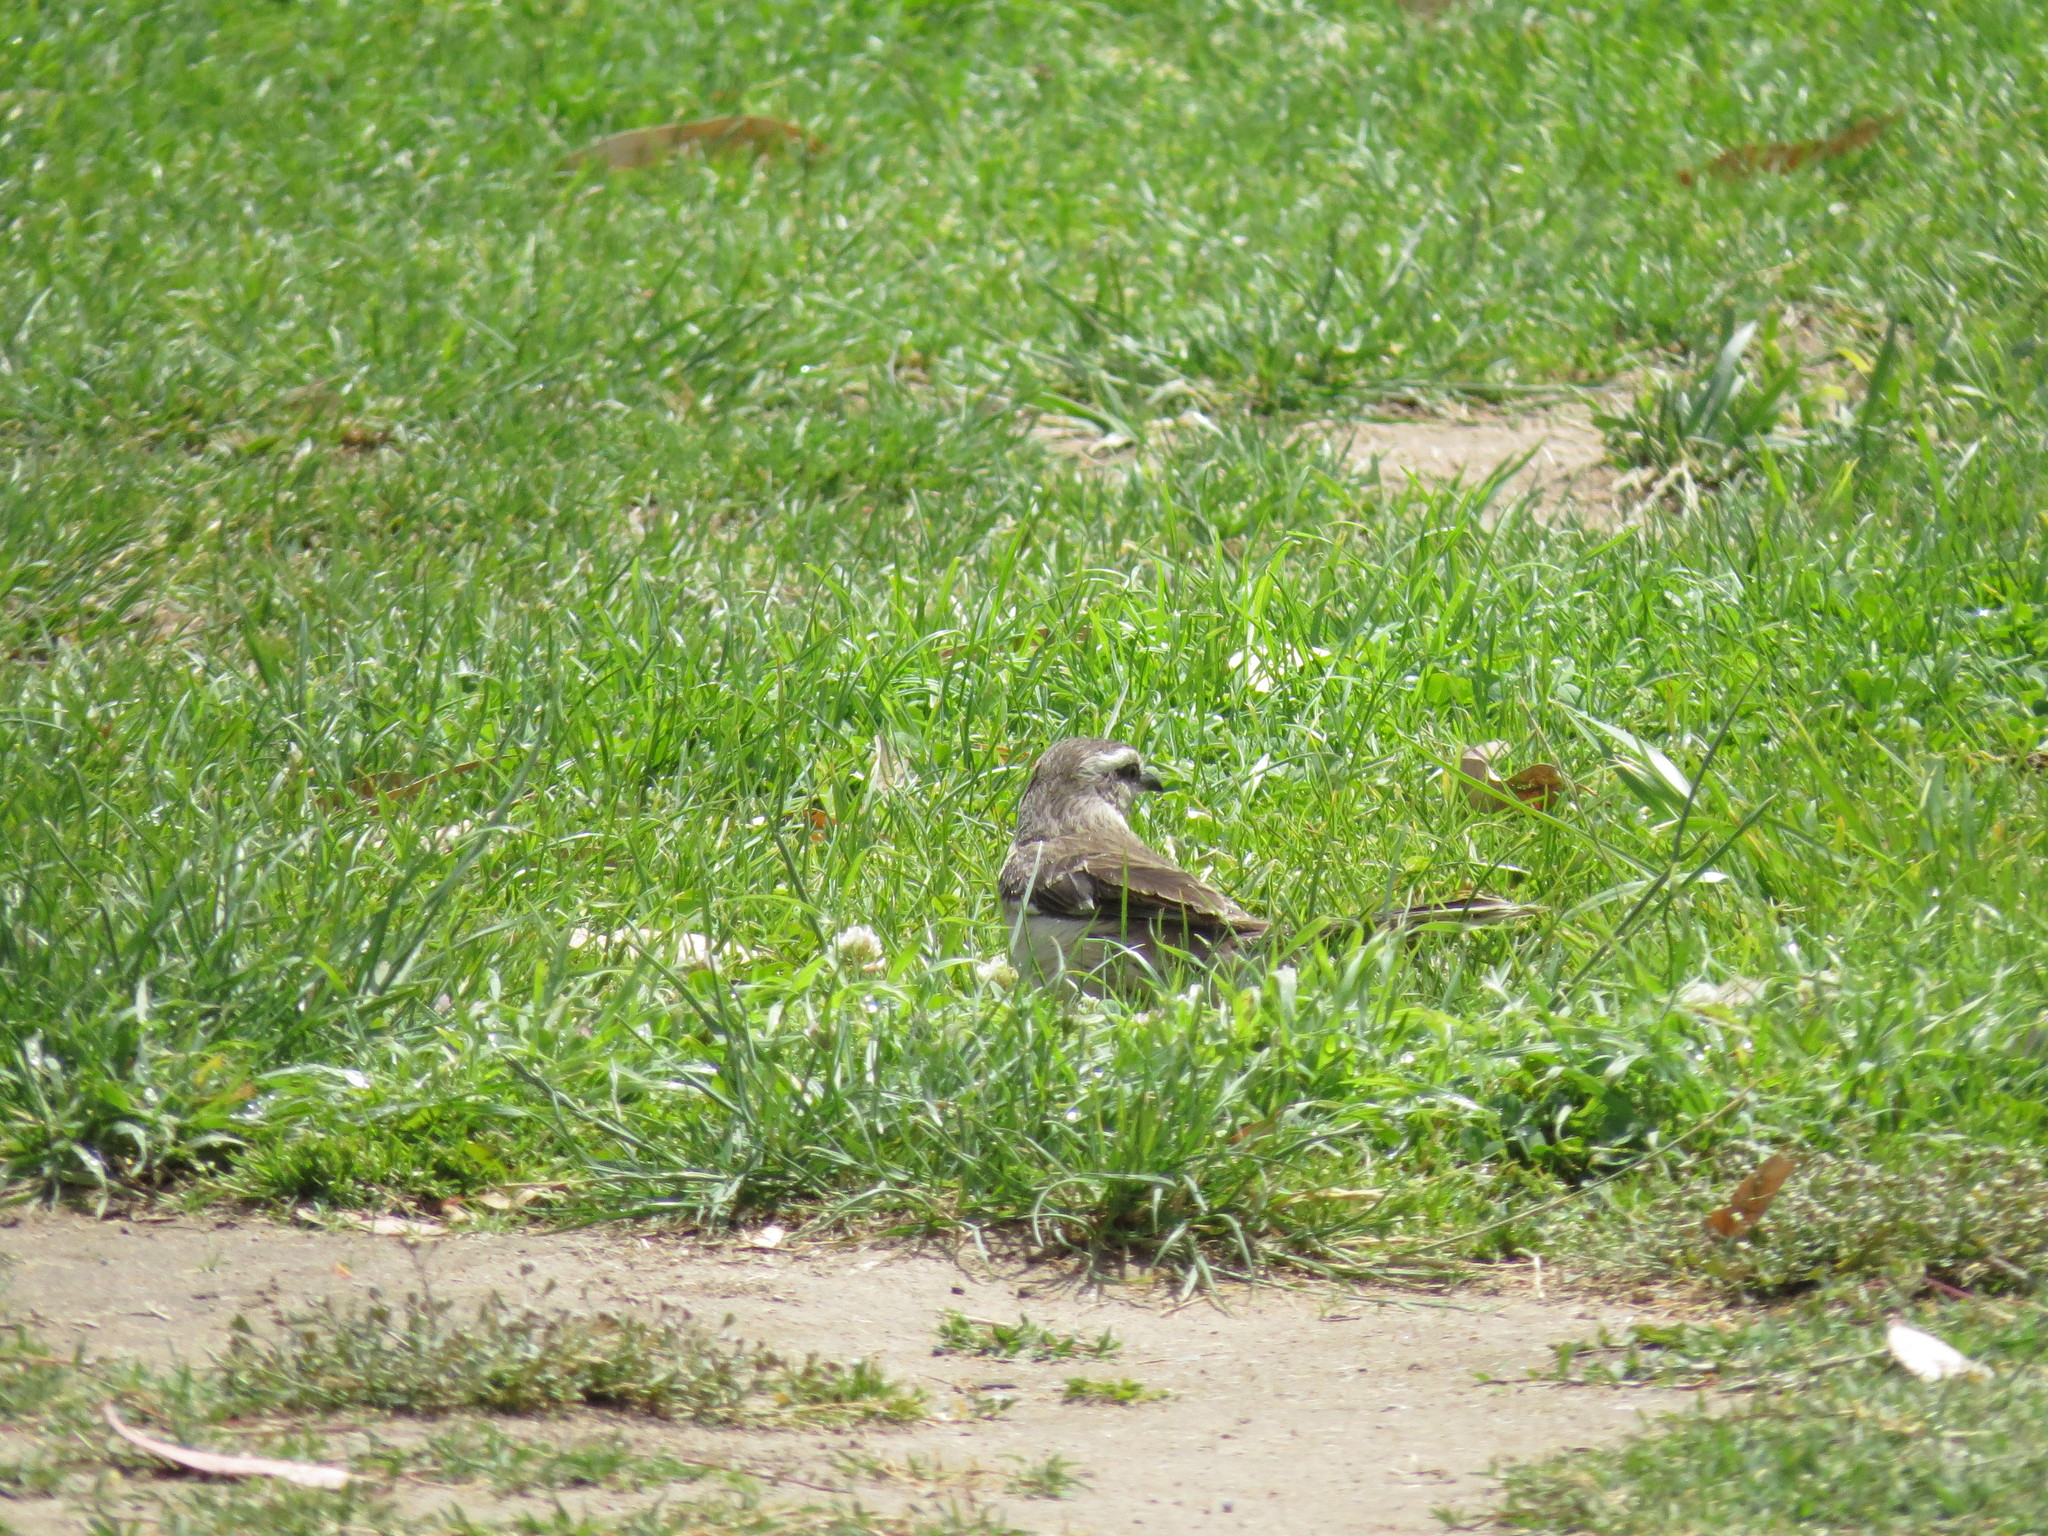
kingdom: Animalia
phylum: Chordata
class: Aves
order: Passeriformes
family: Mimidae
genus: Mimus
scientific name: Mimus saturninus
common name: Chalk-browed mockingbird
